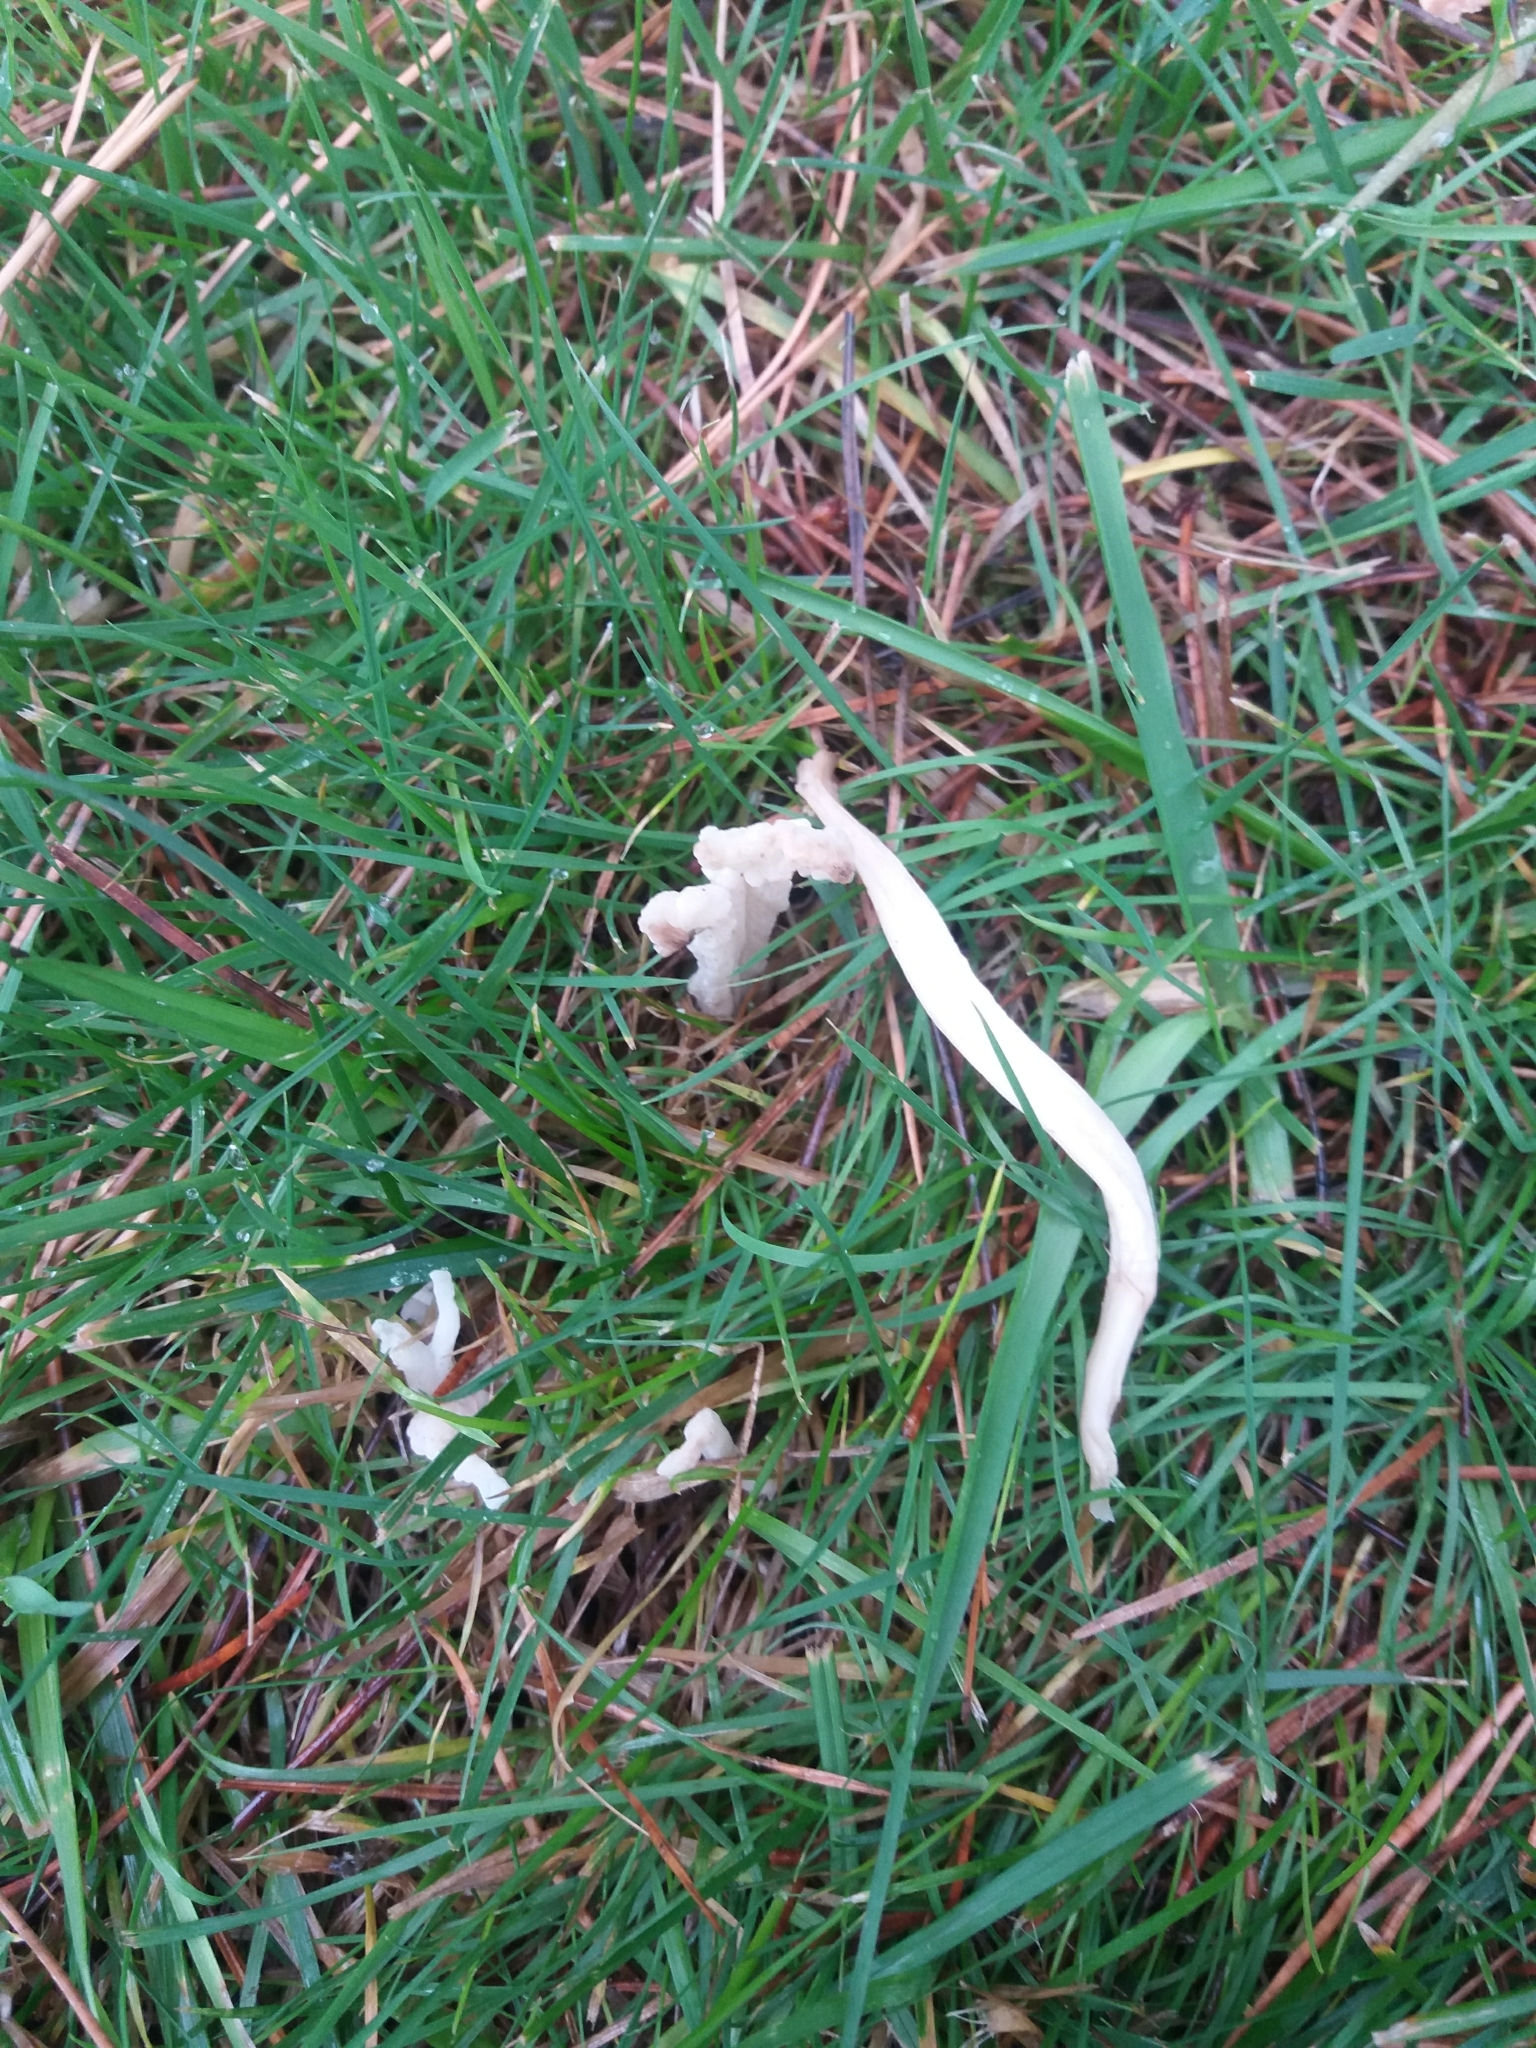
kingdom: Fungi
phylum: Basidiomycota
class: Agaricomycetes
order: Cantharellales
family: Hydnaceae
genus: Clavulina
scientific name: Clavulina rugosa
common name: Wrinkled club
